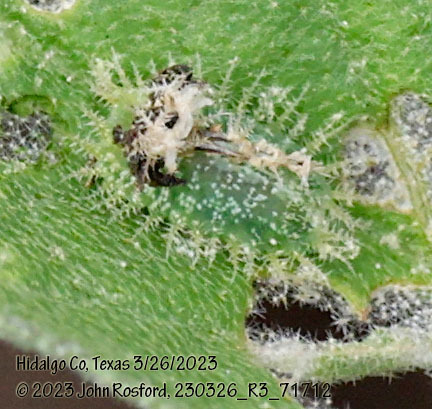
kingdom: Animalia
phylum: Arthropoda
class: Insecta
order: Coleoptera
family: Chrysomelidae
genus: Gratiana
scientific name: Gratiana pallidula
